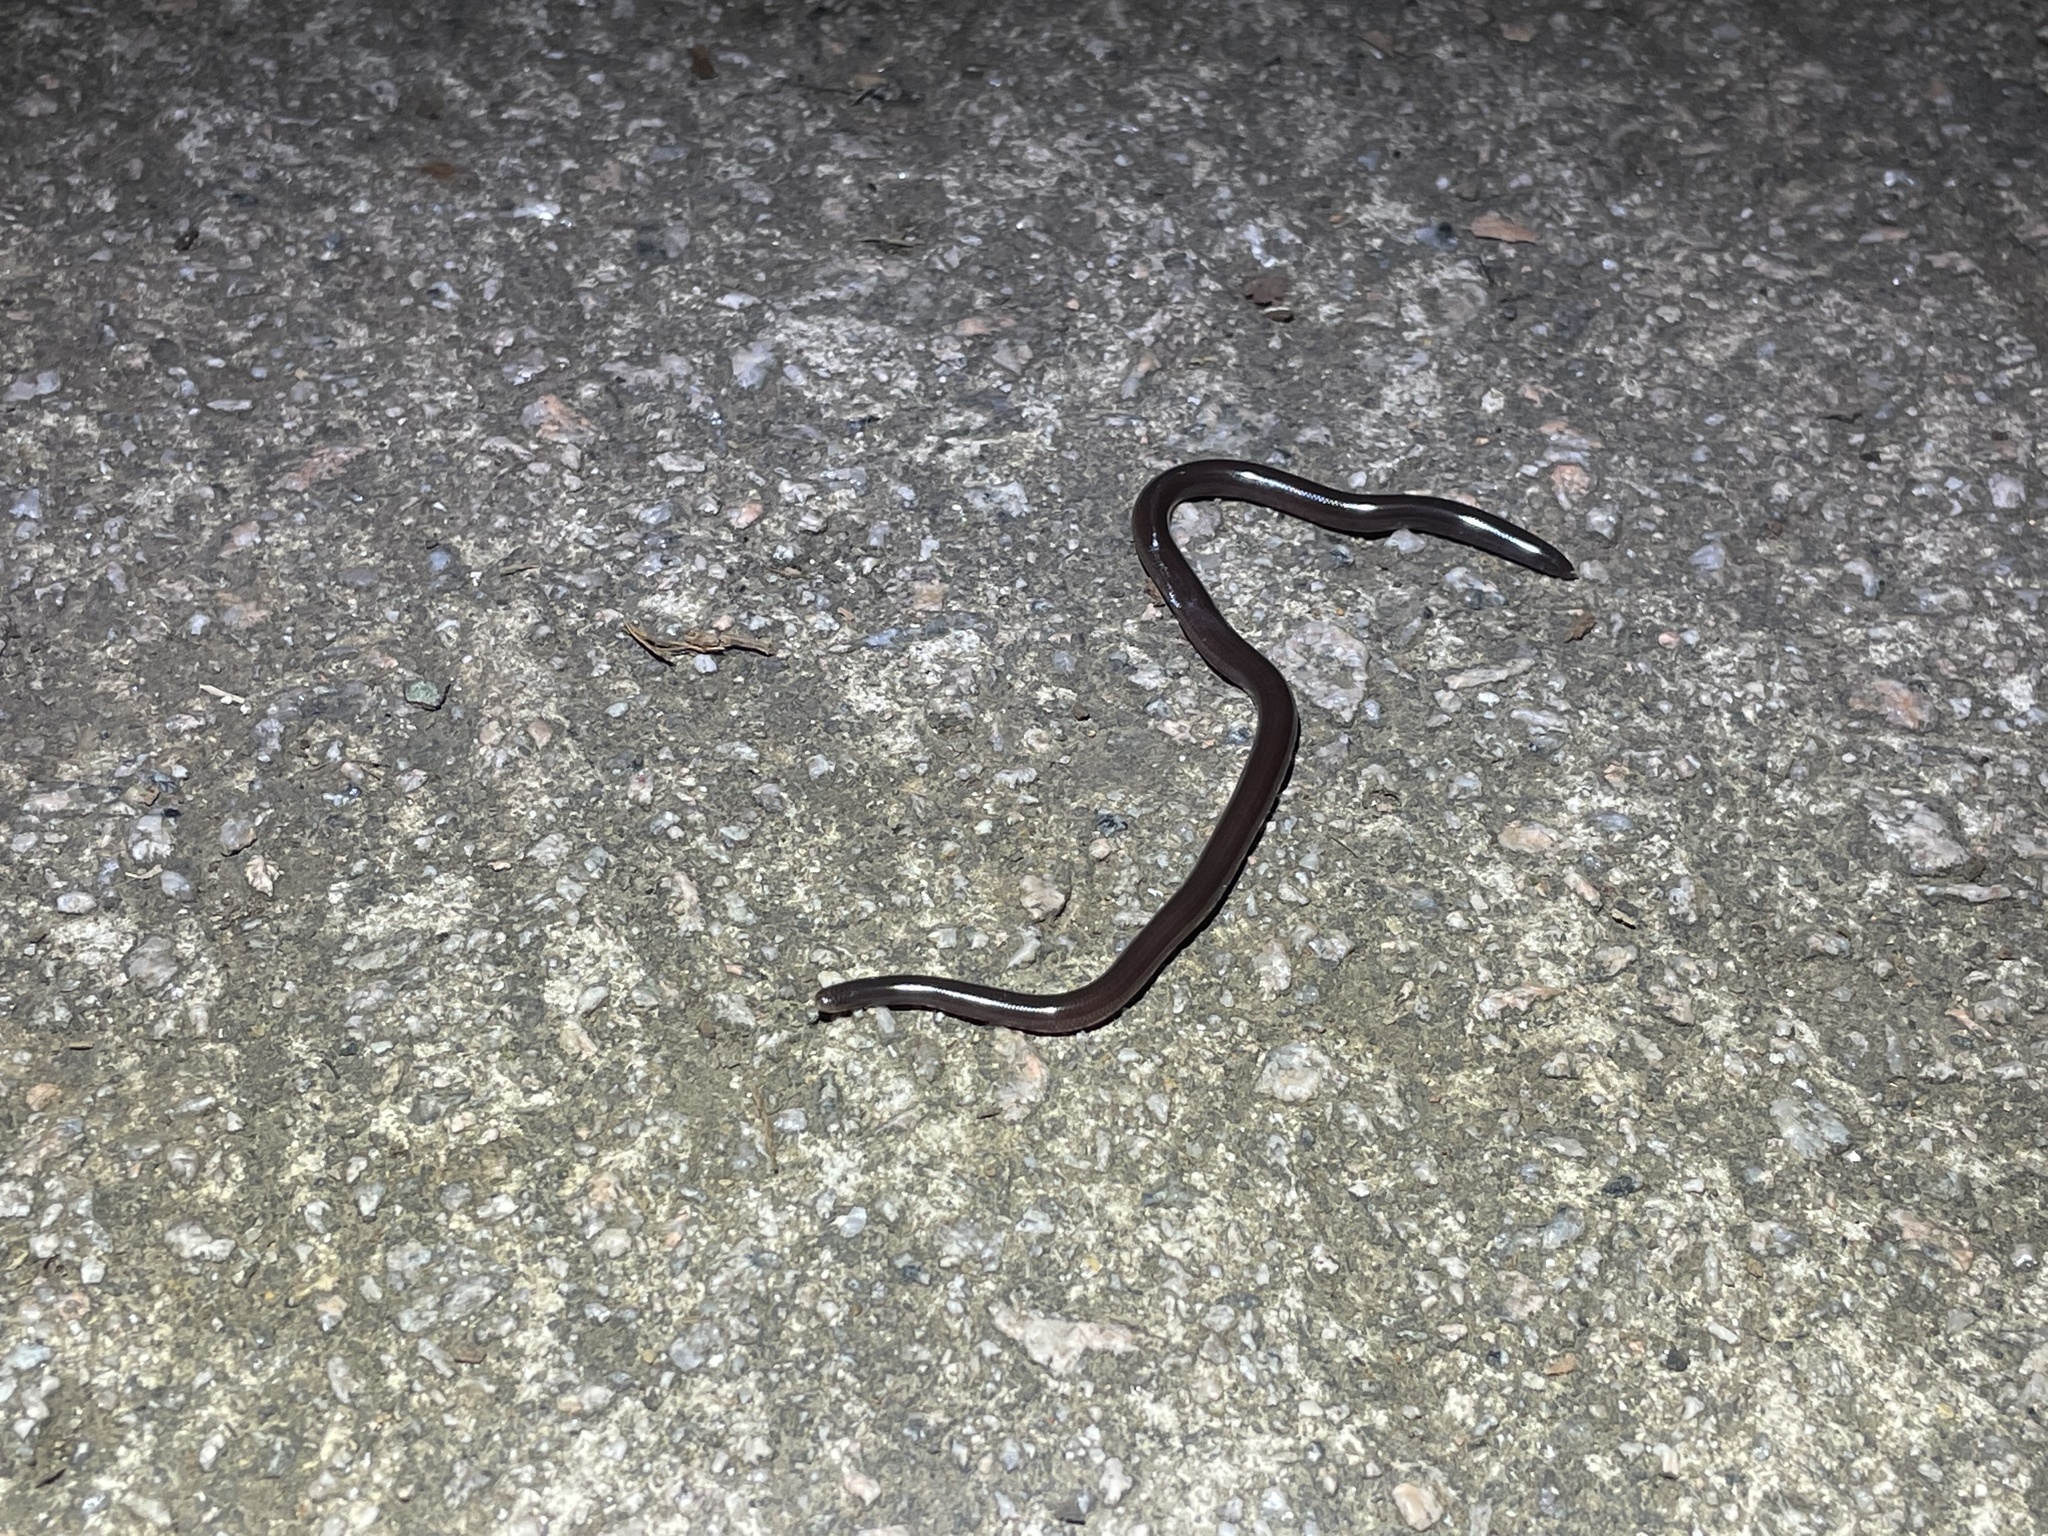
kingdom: Animalia
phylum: Chordata
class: Squamata
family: Typhlopidae
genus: Indotyphlops
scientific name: Indotyphlops braminus
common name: Brahminy blindsnake
